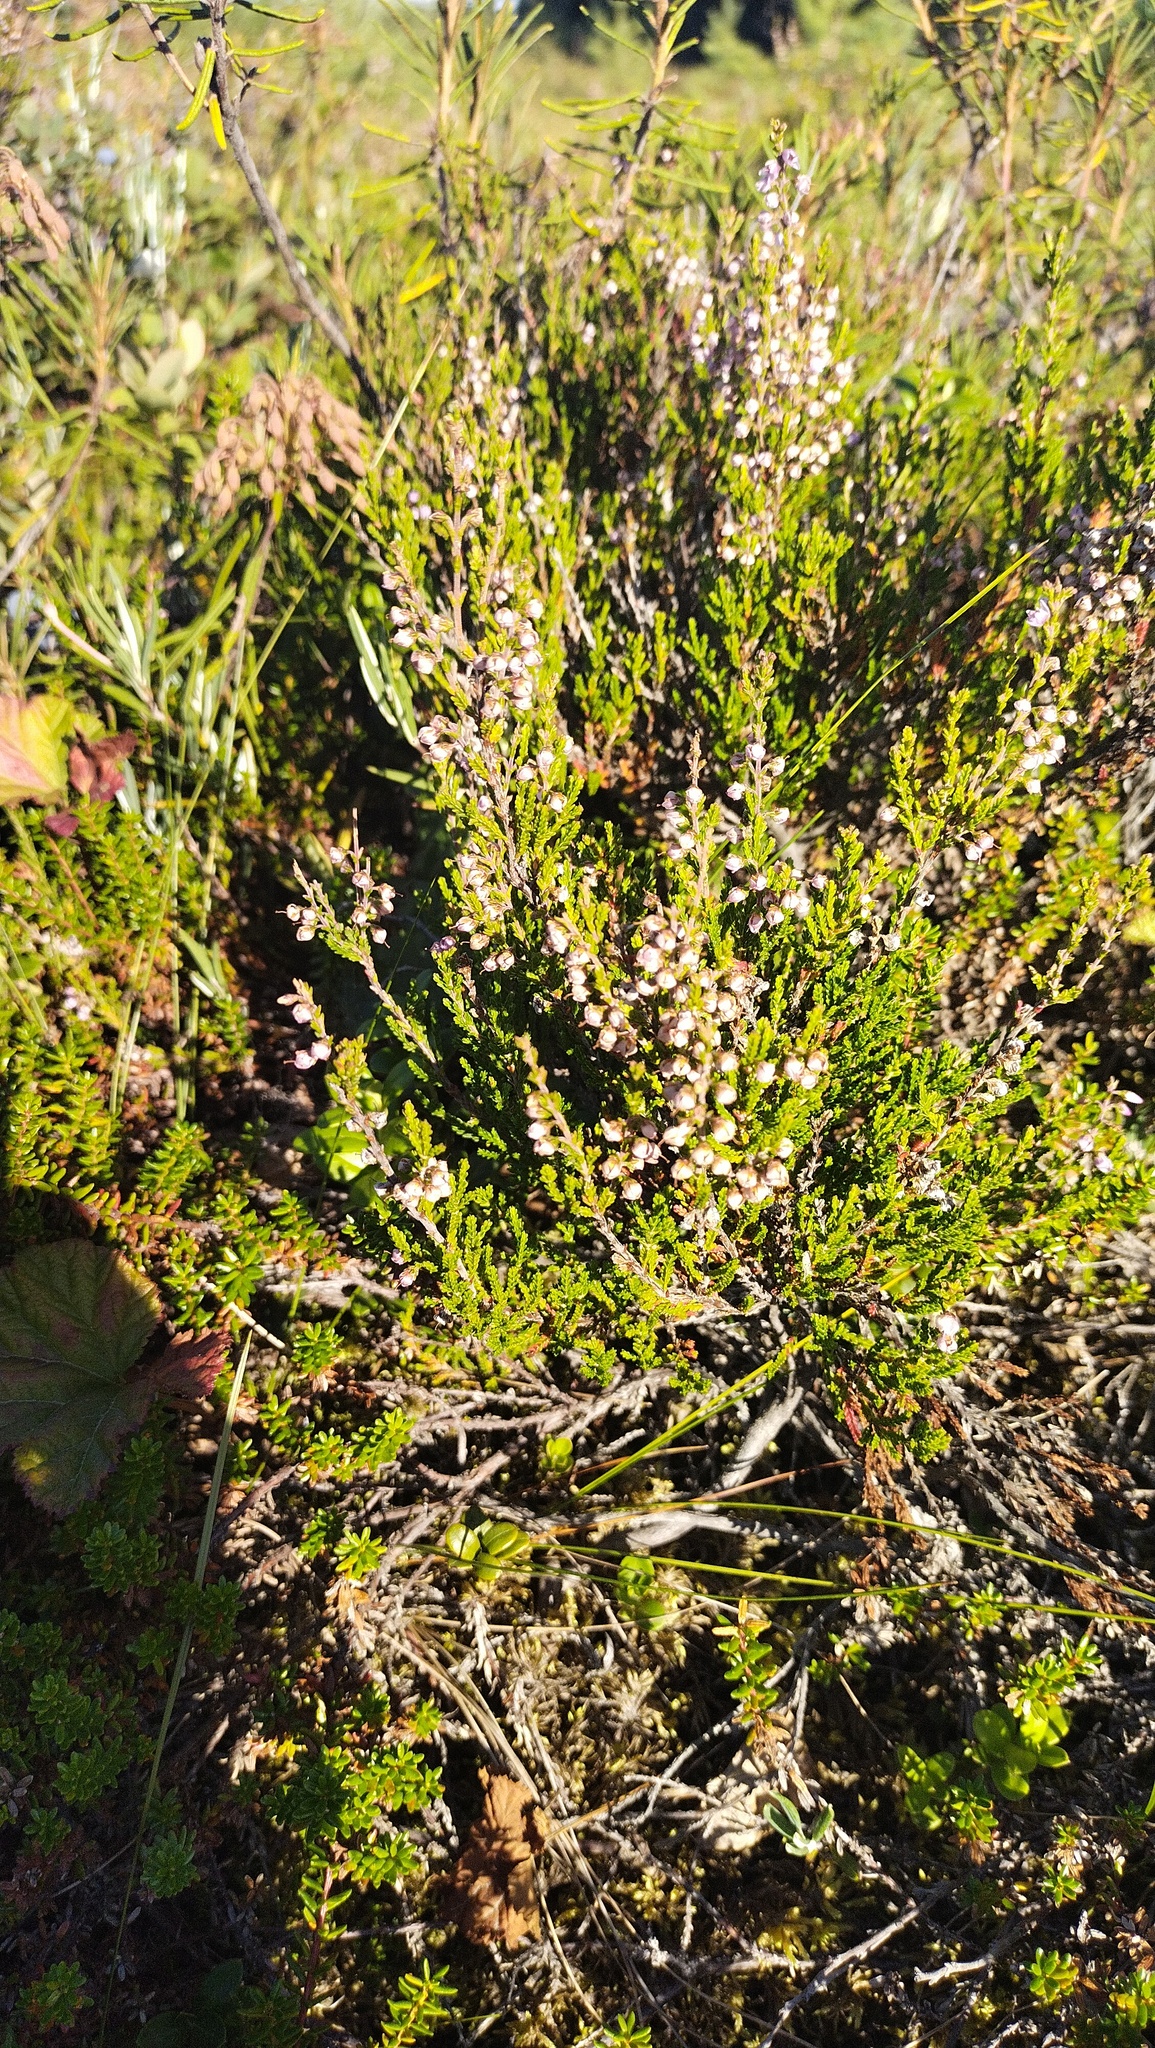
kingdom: Plantae
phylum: Tracheophyta
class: Magnoliopsida
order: Ericales
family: Ericaceae
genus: Calluna
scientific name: Calluna vulgaris
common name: Heather
